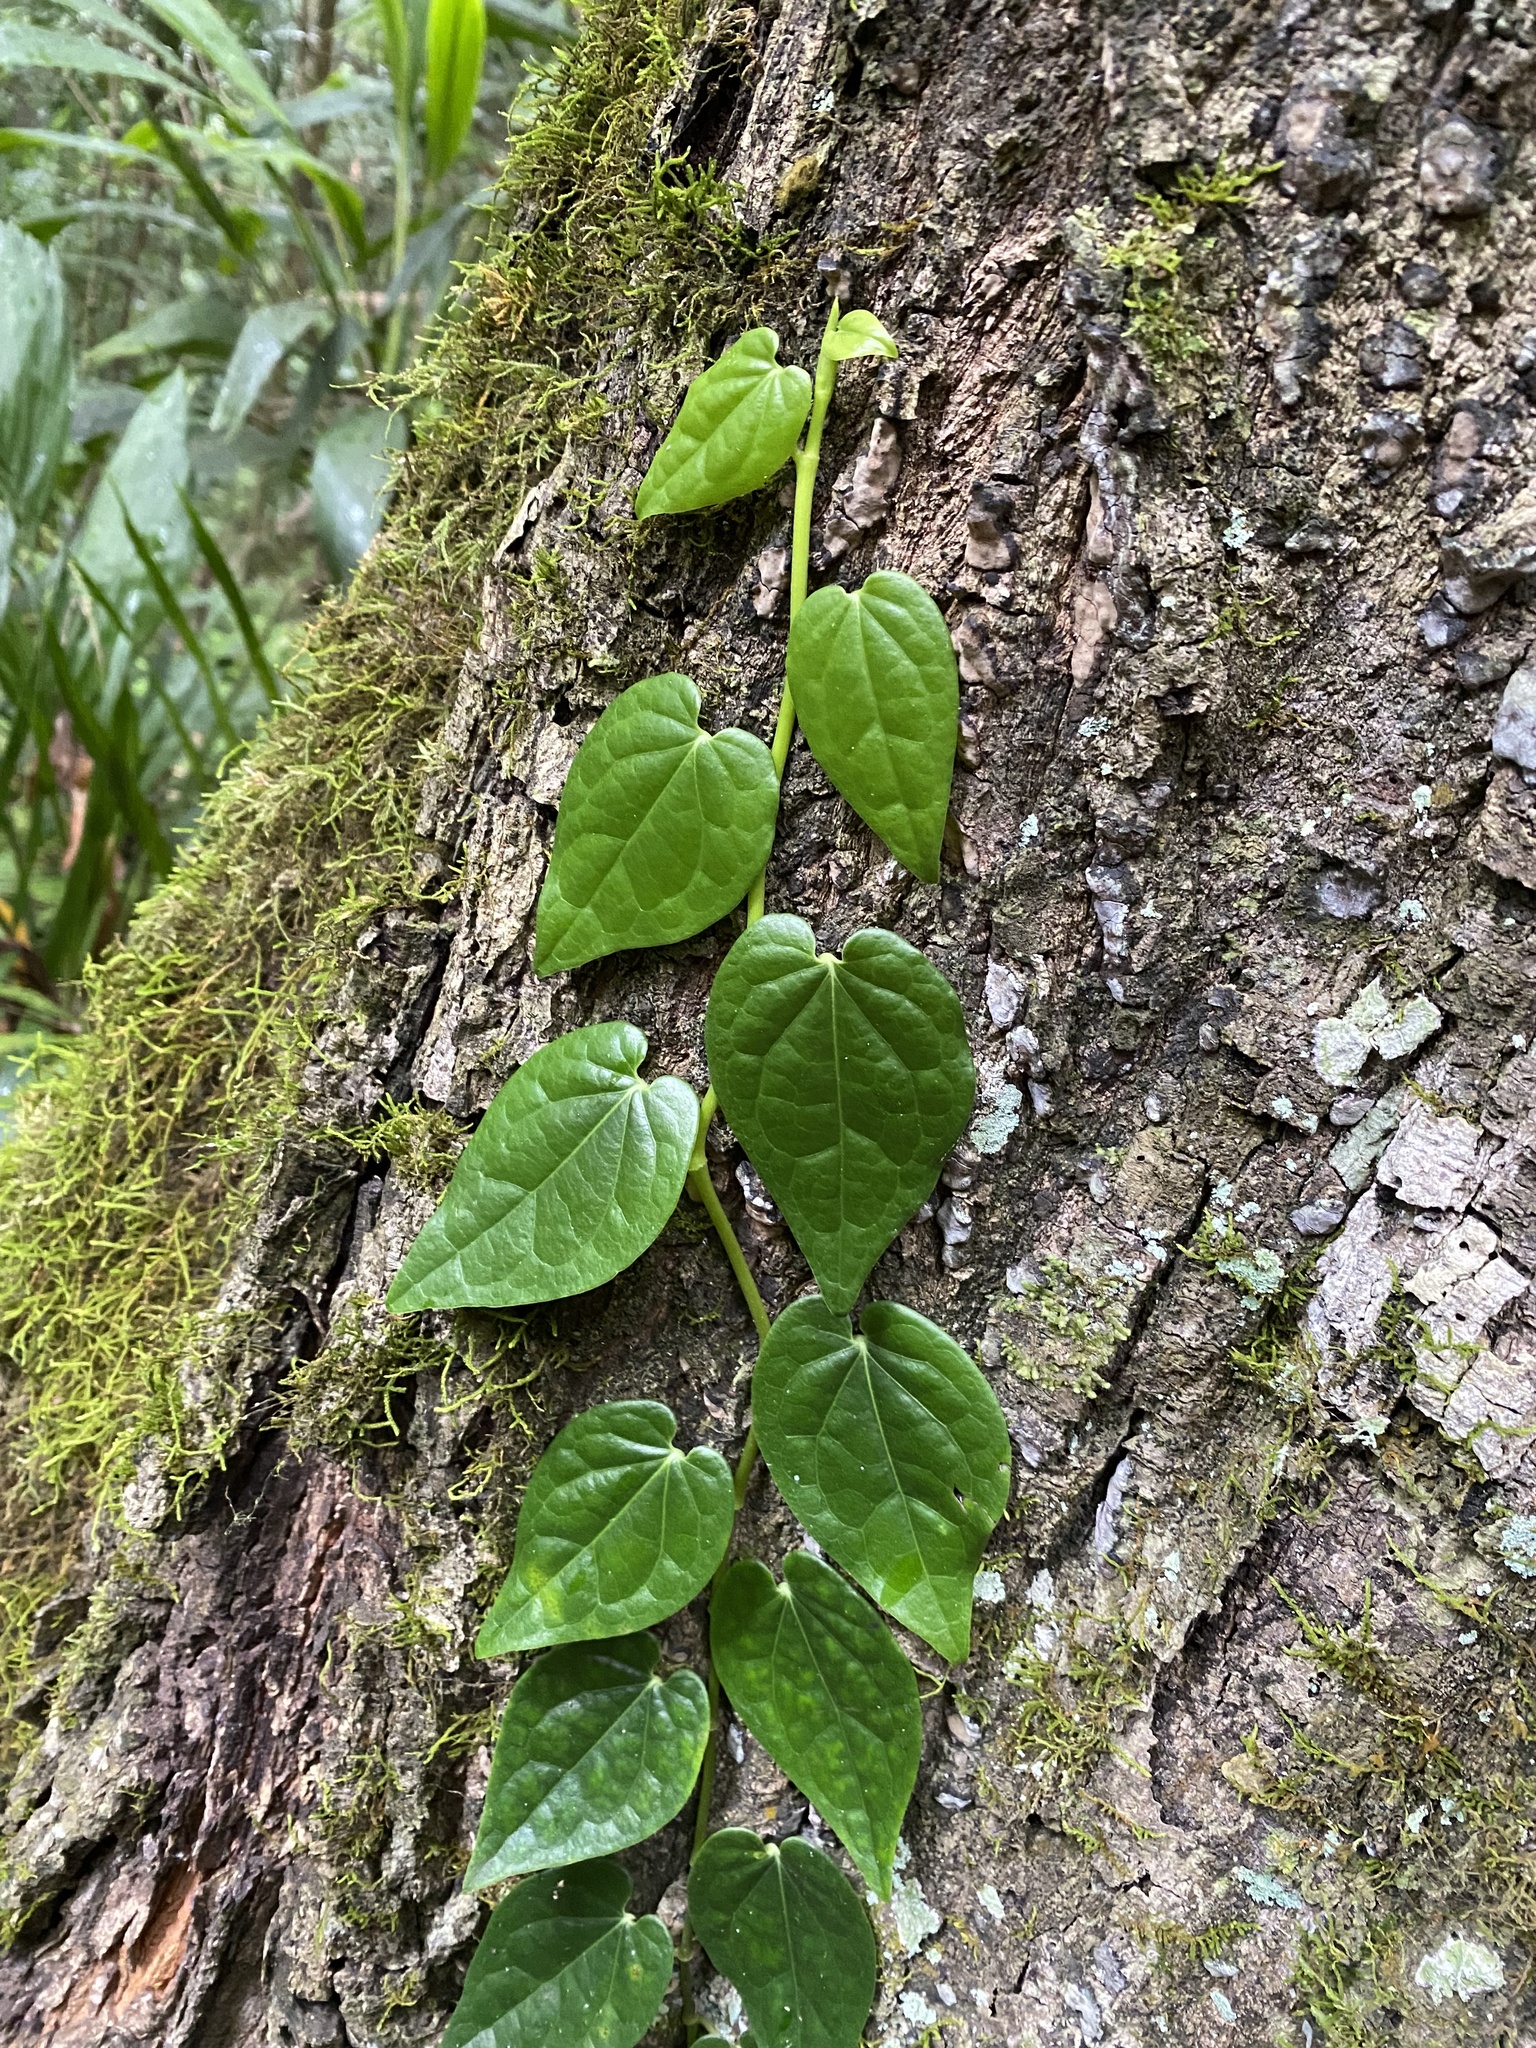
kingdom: Plantae
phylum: Tracheophyta
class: Magnoliopsida
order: Piperales
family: Piperaceae
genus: Piper
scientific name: Piper hederaceum
